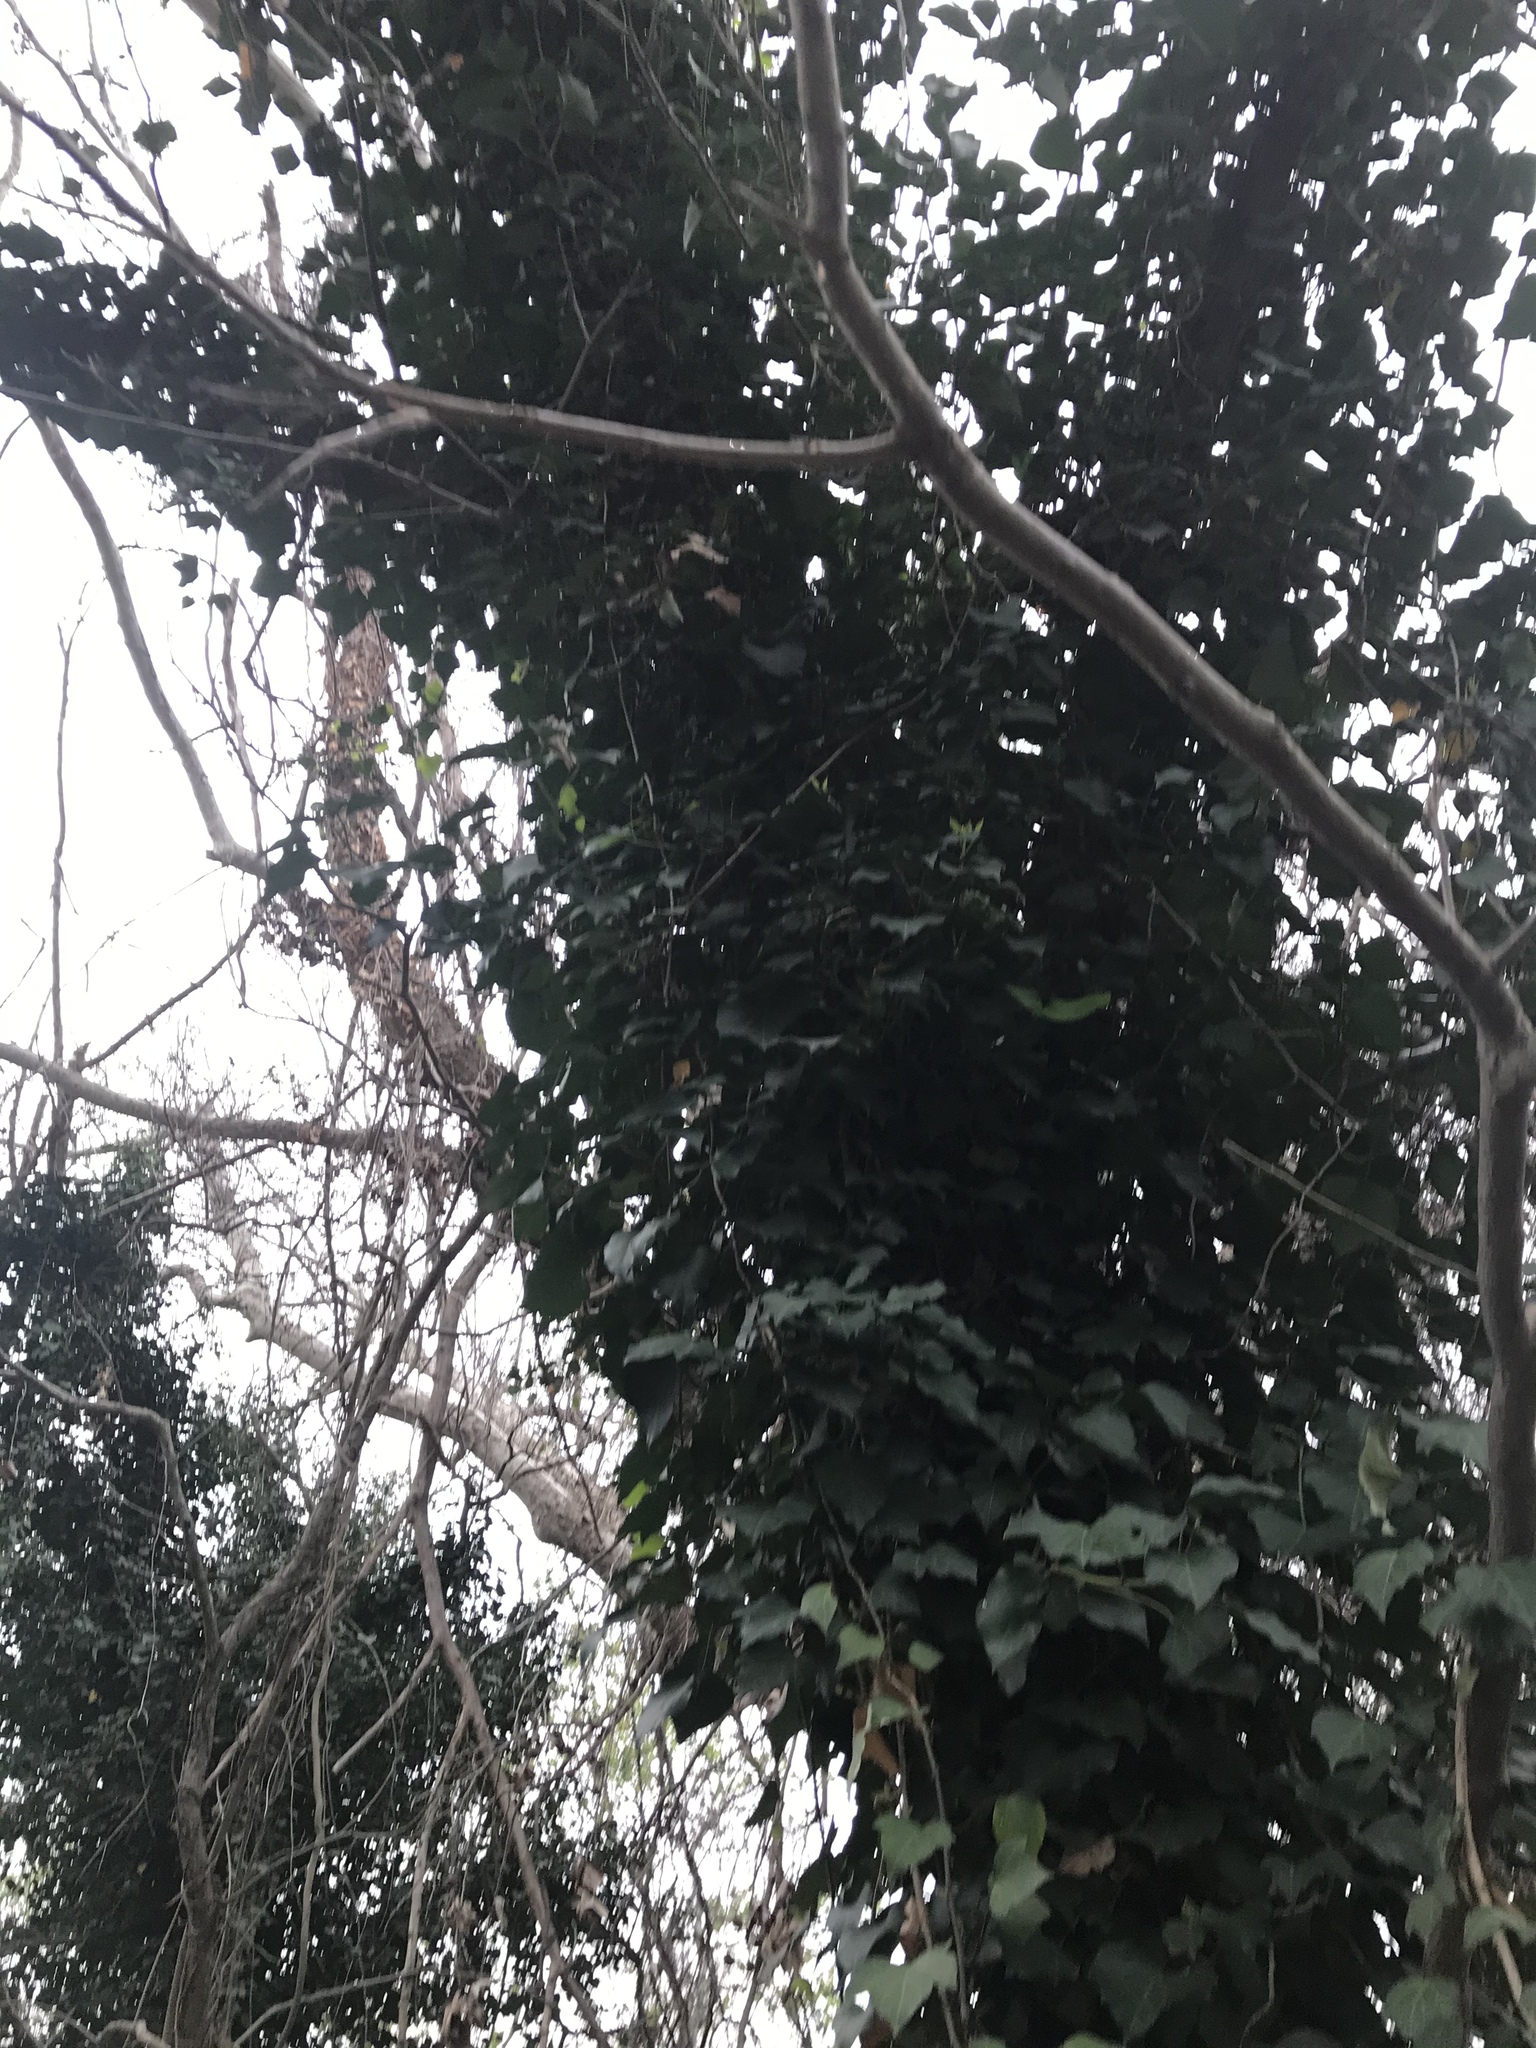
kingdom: Plantae
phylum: Tracheophyta
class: Magnoliopsida
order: Apiales
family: Araliaceae
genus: Hedera
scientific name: Hedera helix
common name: Ivy
